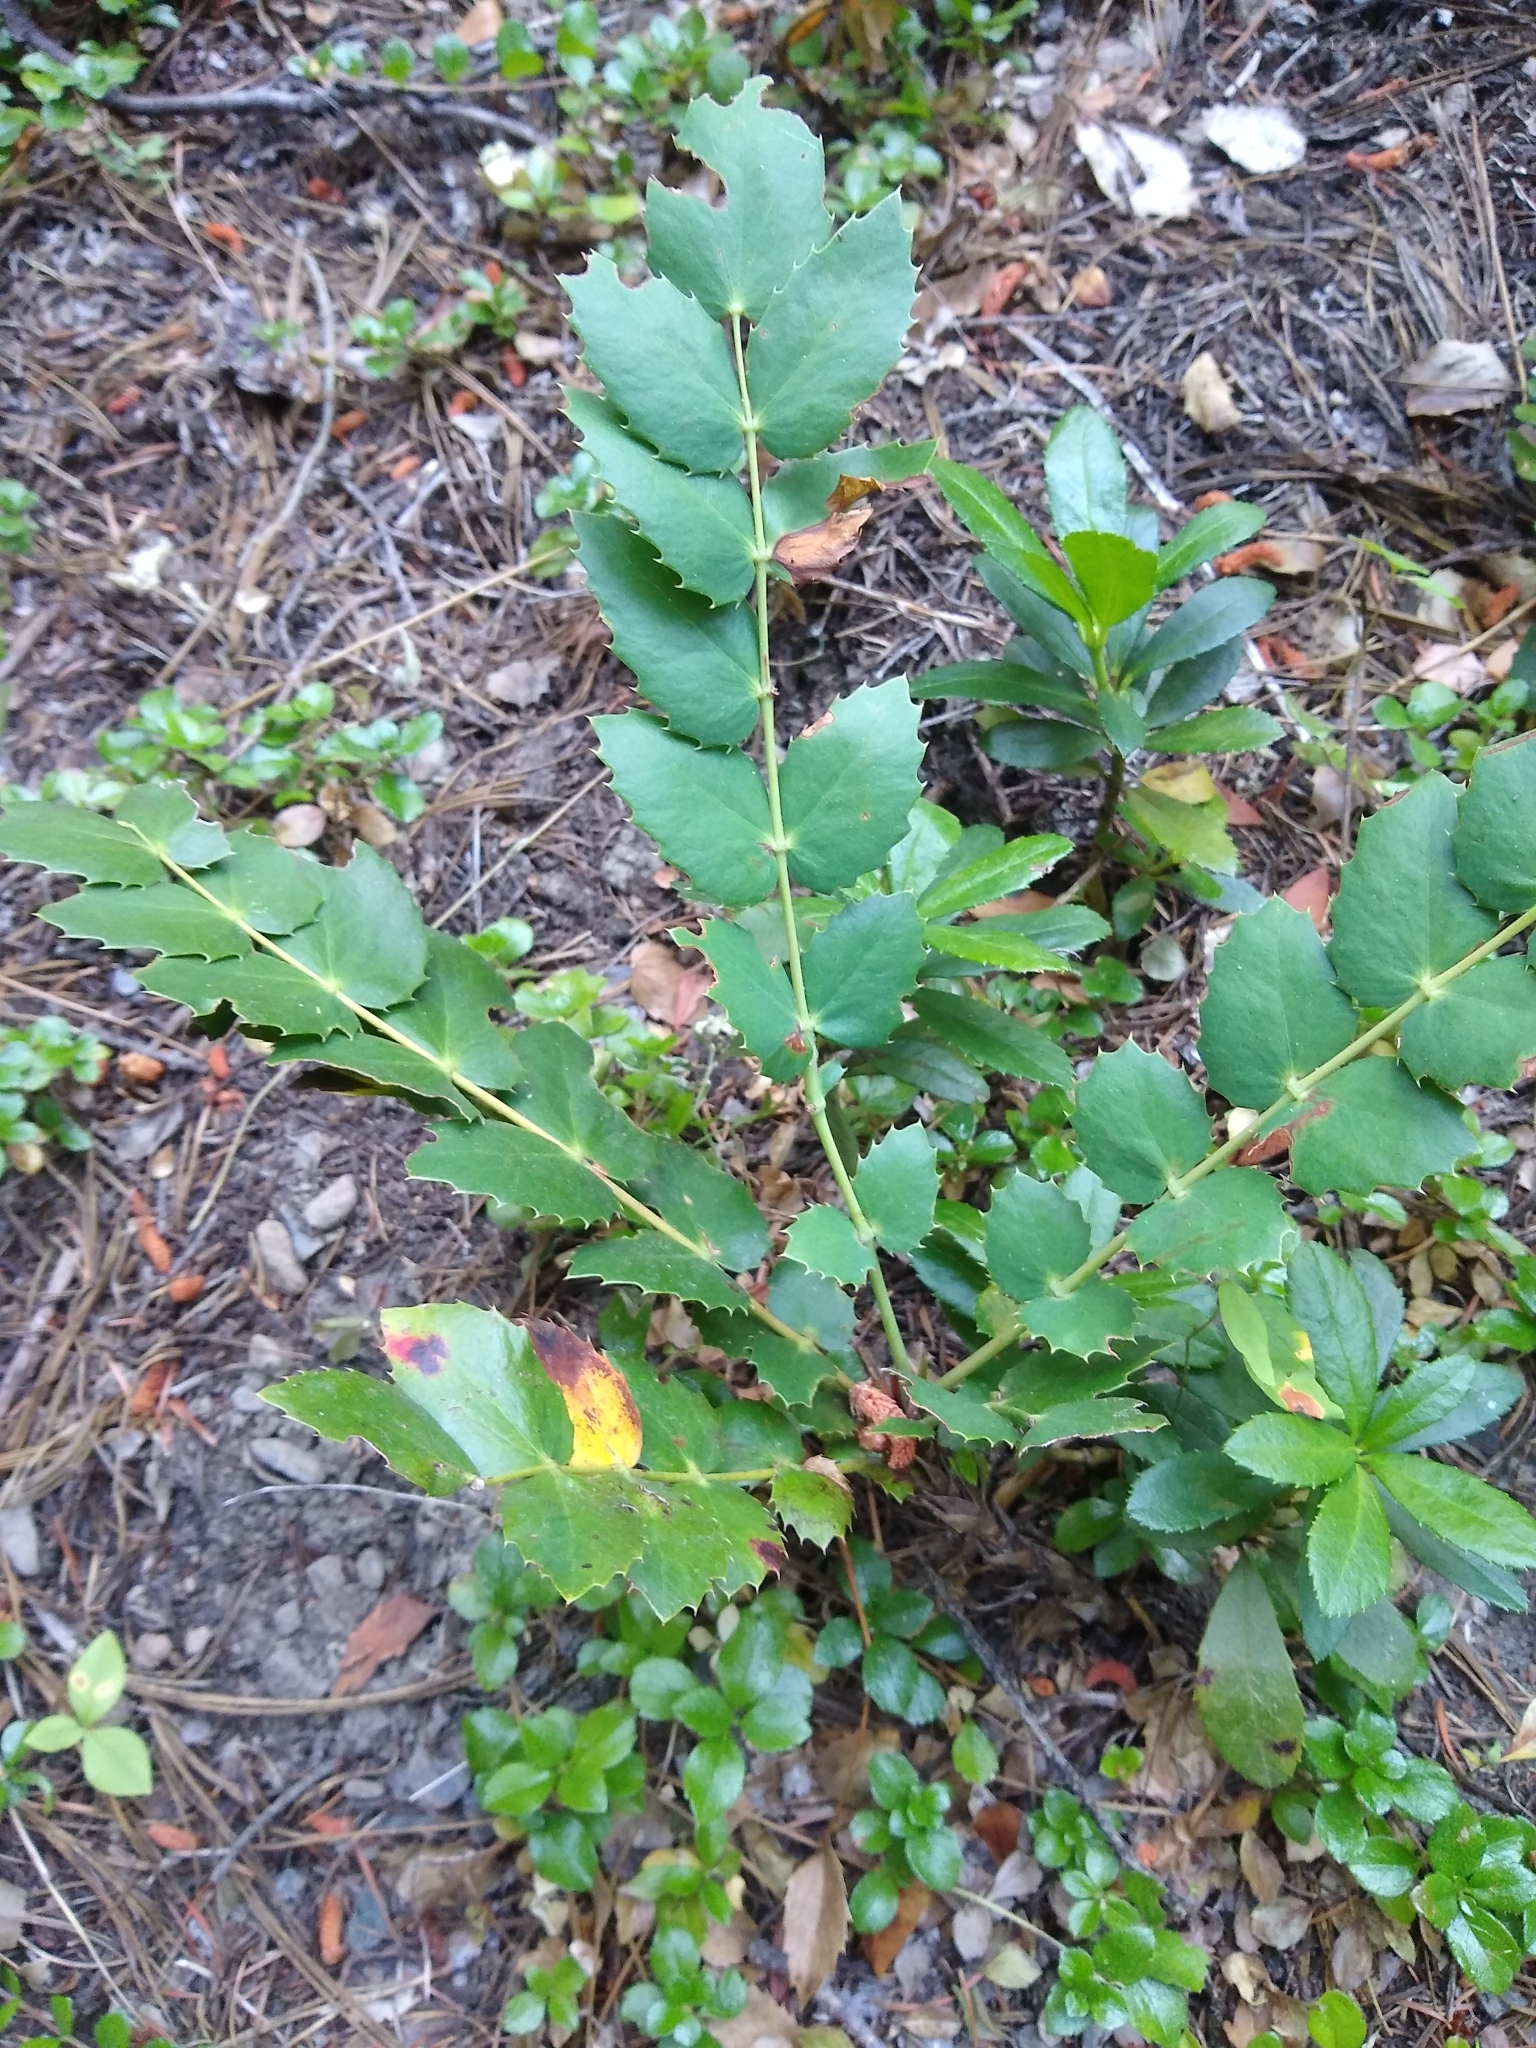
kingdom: Plantae
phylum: Tracheophyta
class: Magnoliopsida
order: Ranunculales
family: Berberidaceae
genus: Mahonia
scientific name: Mahonia nervosa
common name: Cascade oregon-grape
